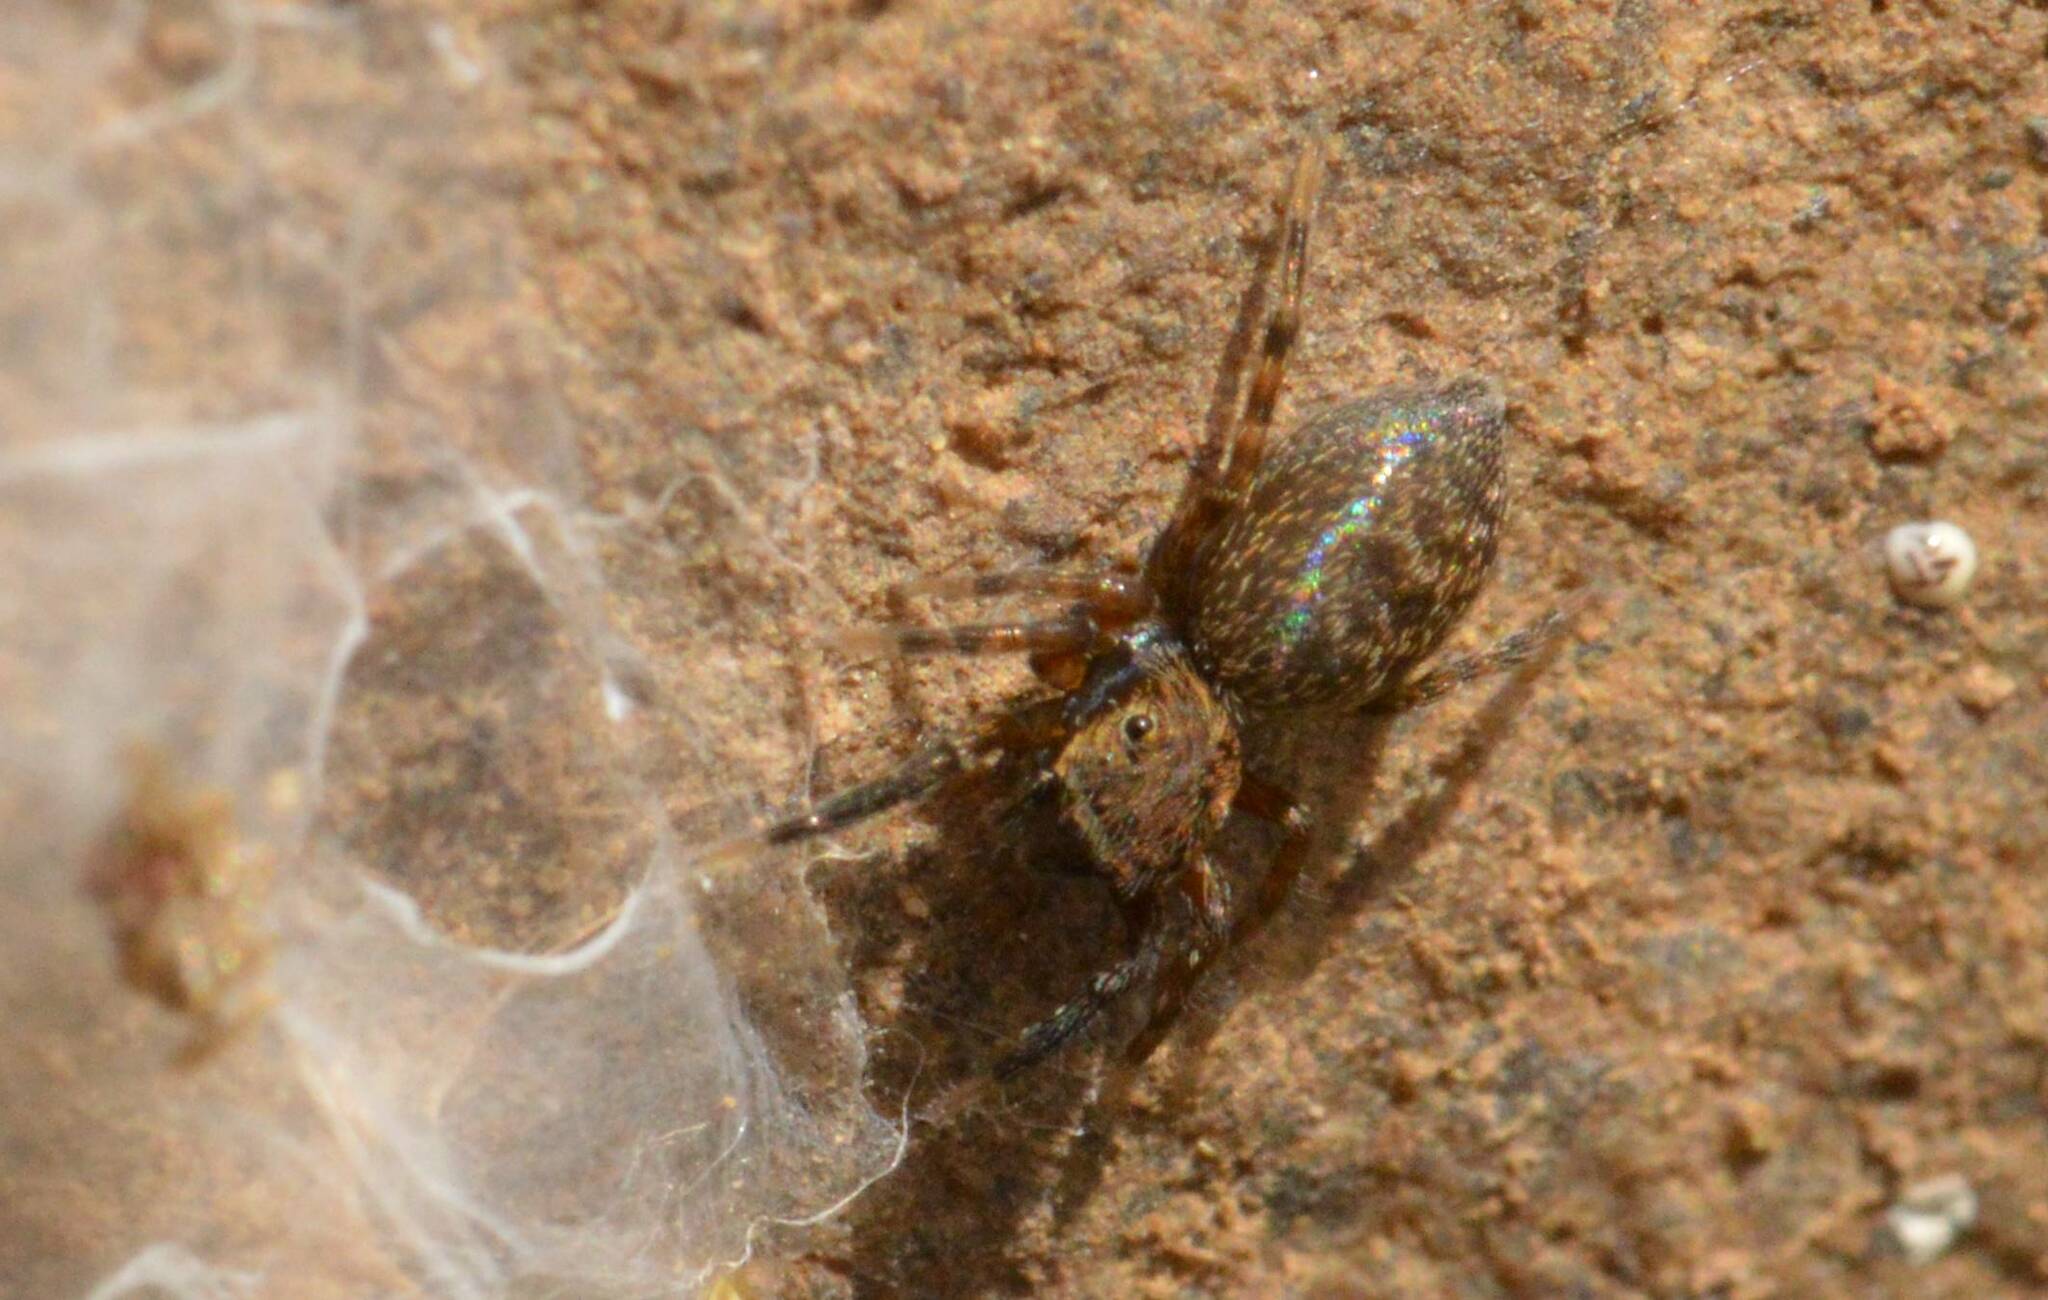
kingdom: Animalia
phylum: Arthropoda
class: Arachnida
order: Araneae
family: Salticidae
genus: Cyrba
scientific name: Cyrba algerina
